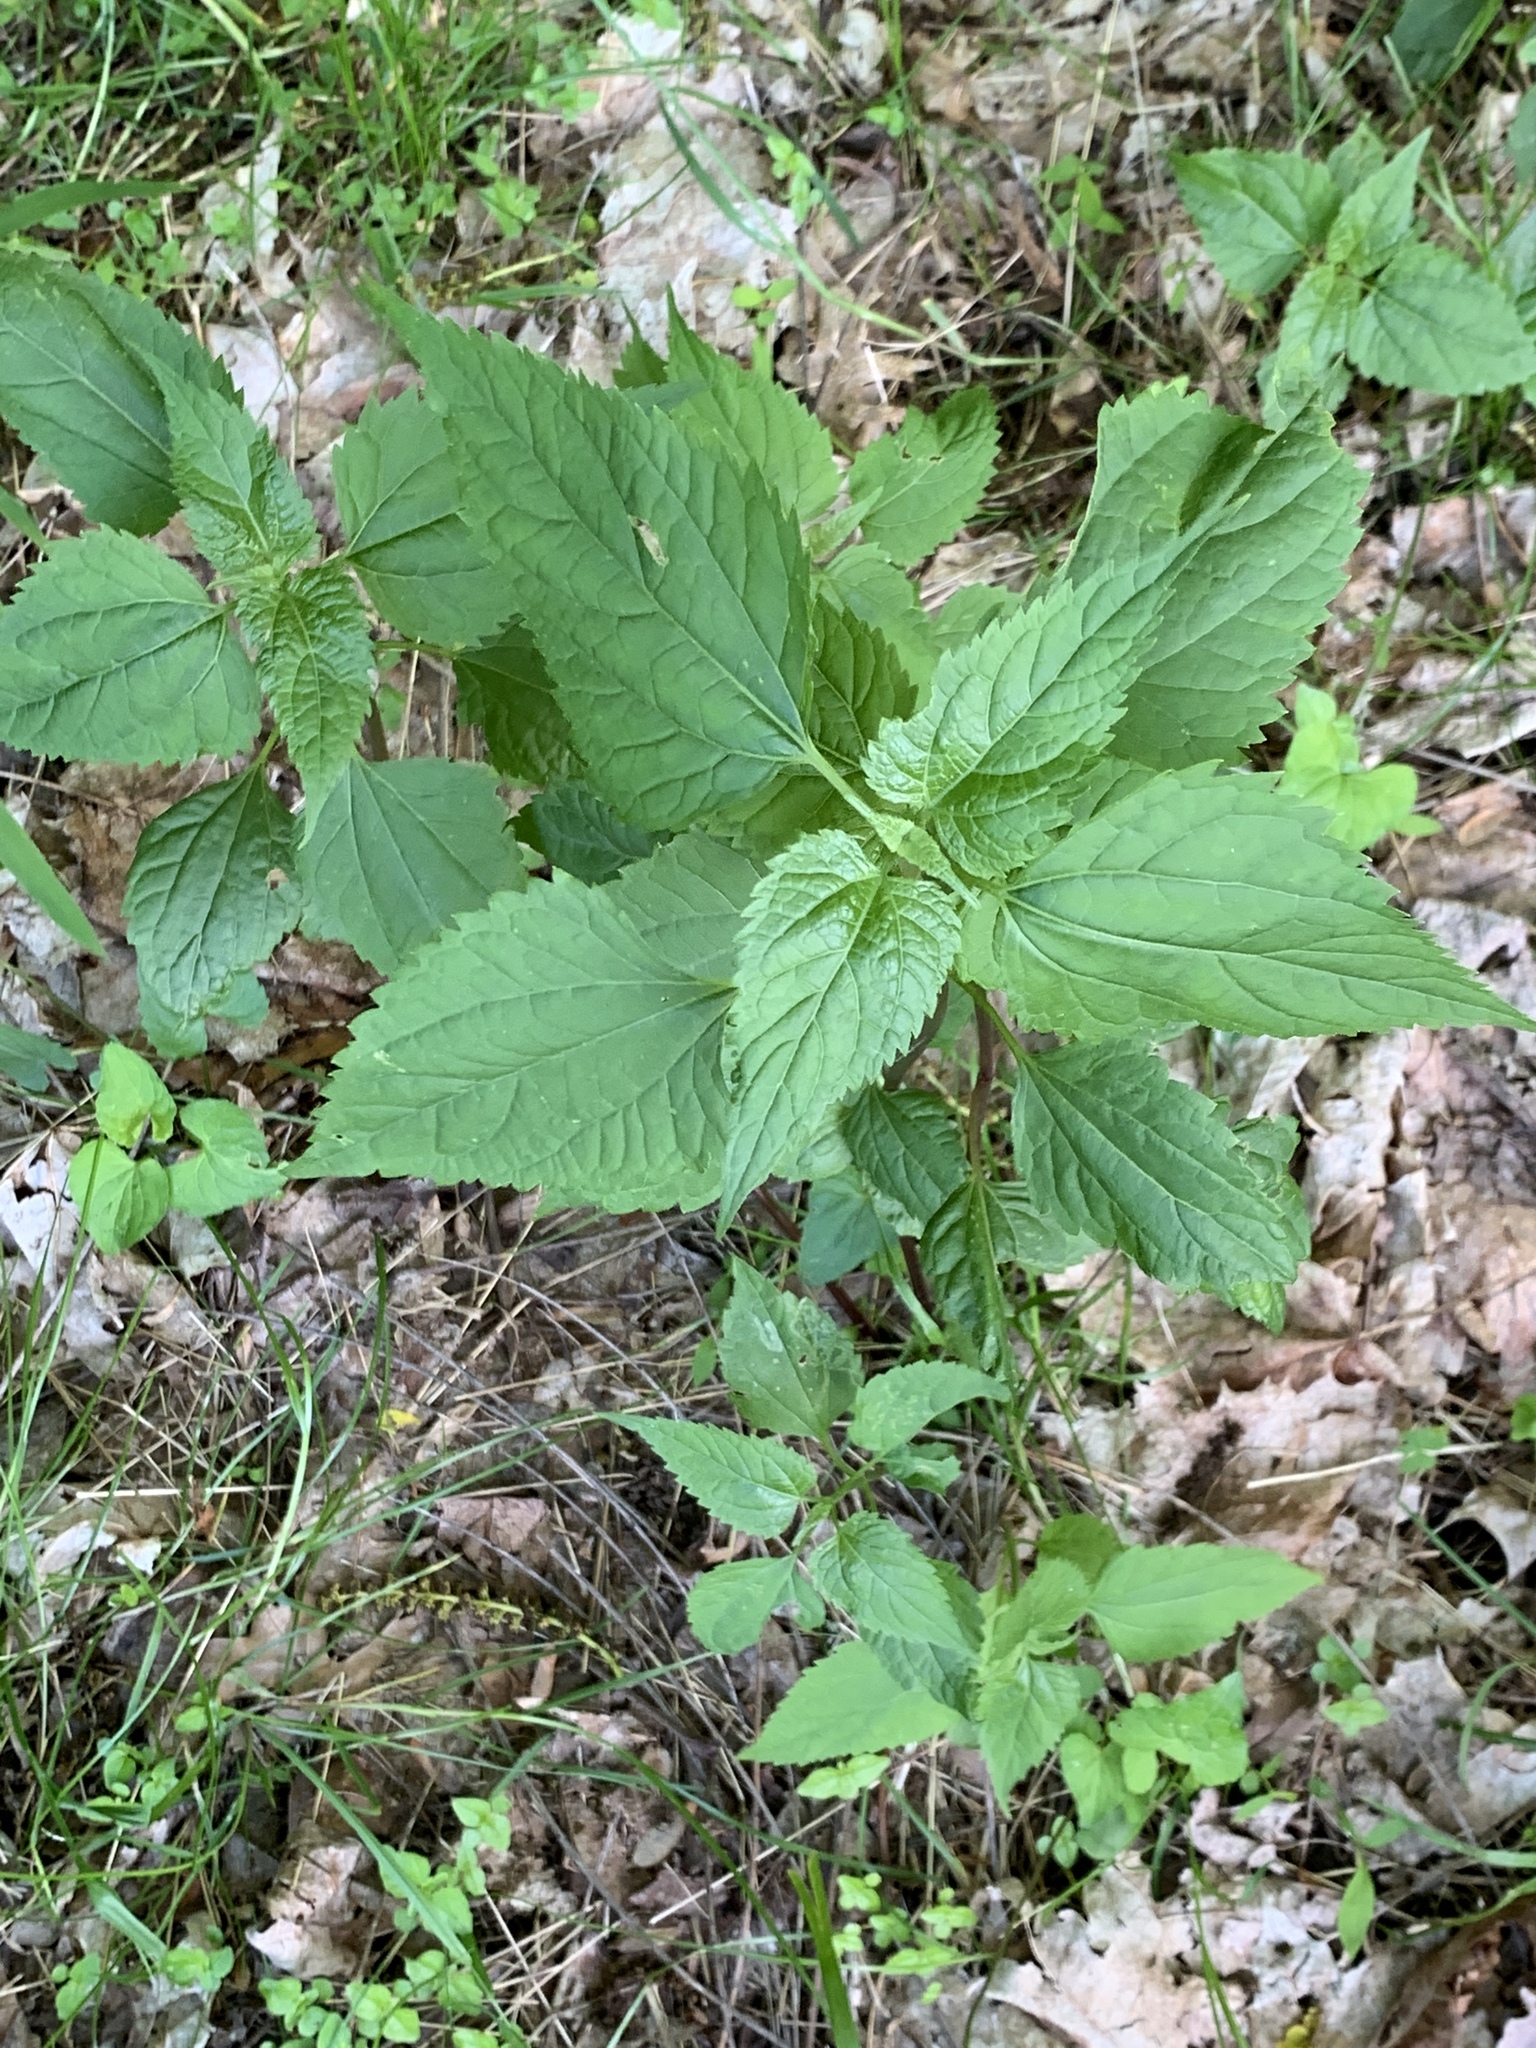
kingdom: Plantae
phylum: Tracheophyta
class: Magnoliopsida
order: Asterales
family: Asteraceae
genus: Ageratina
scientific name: Ageratina altissima
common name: White snakeroot
